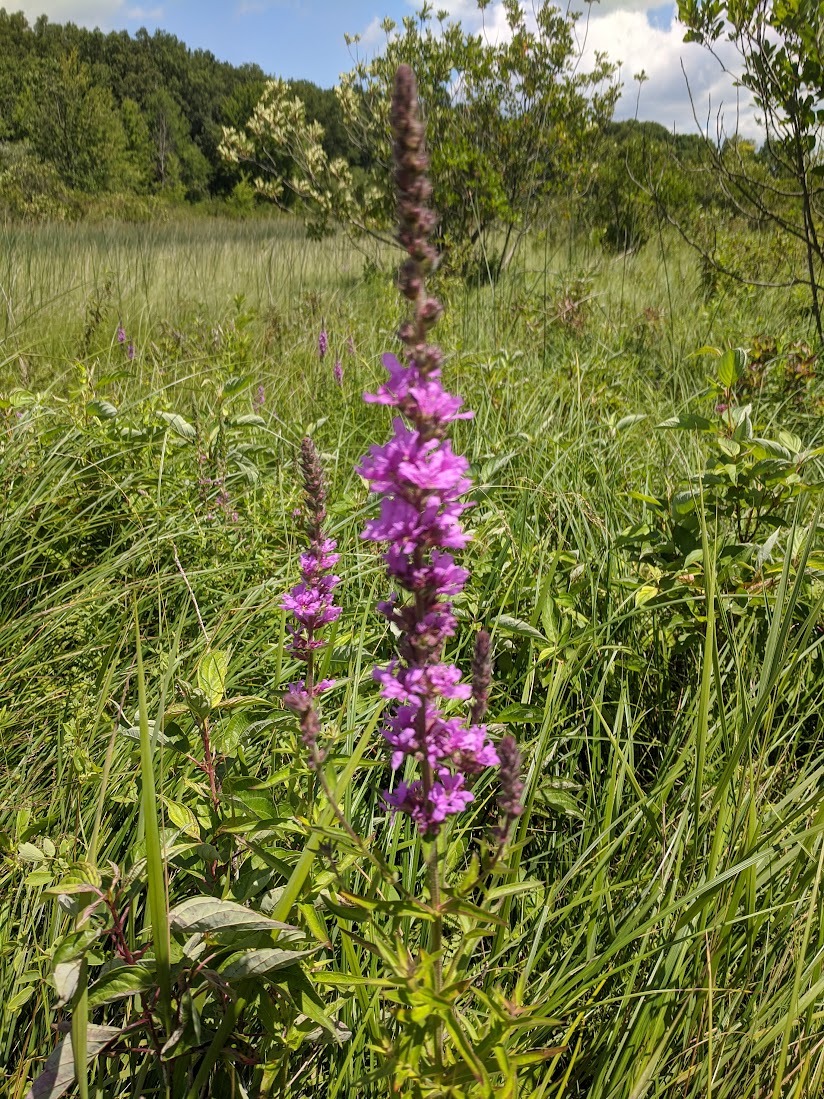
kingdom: Plantae
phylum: Tracheophyta
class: Magnoliopsida
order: Myrtales
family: Lythraceae
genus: Lythrum
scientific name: Lythrum salicaria
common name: Purple loosestrife
